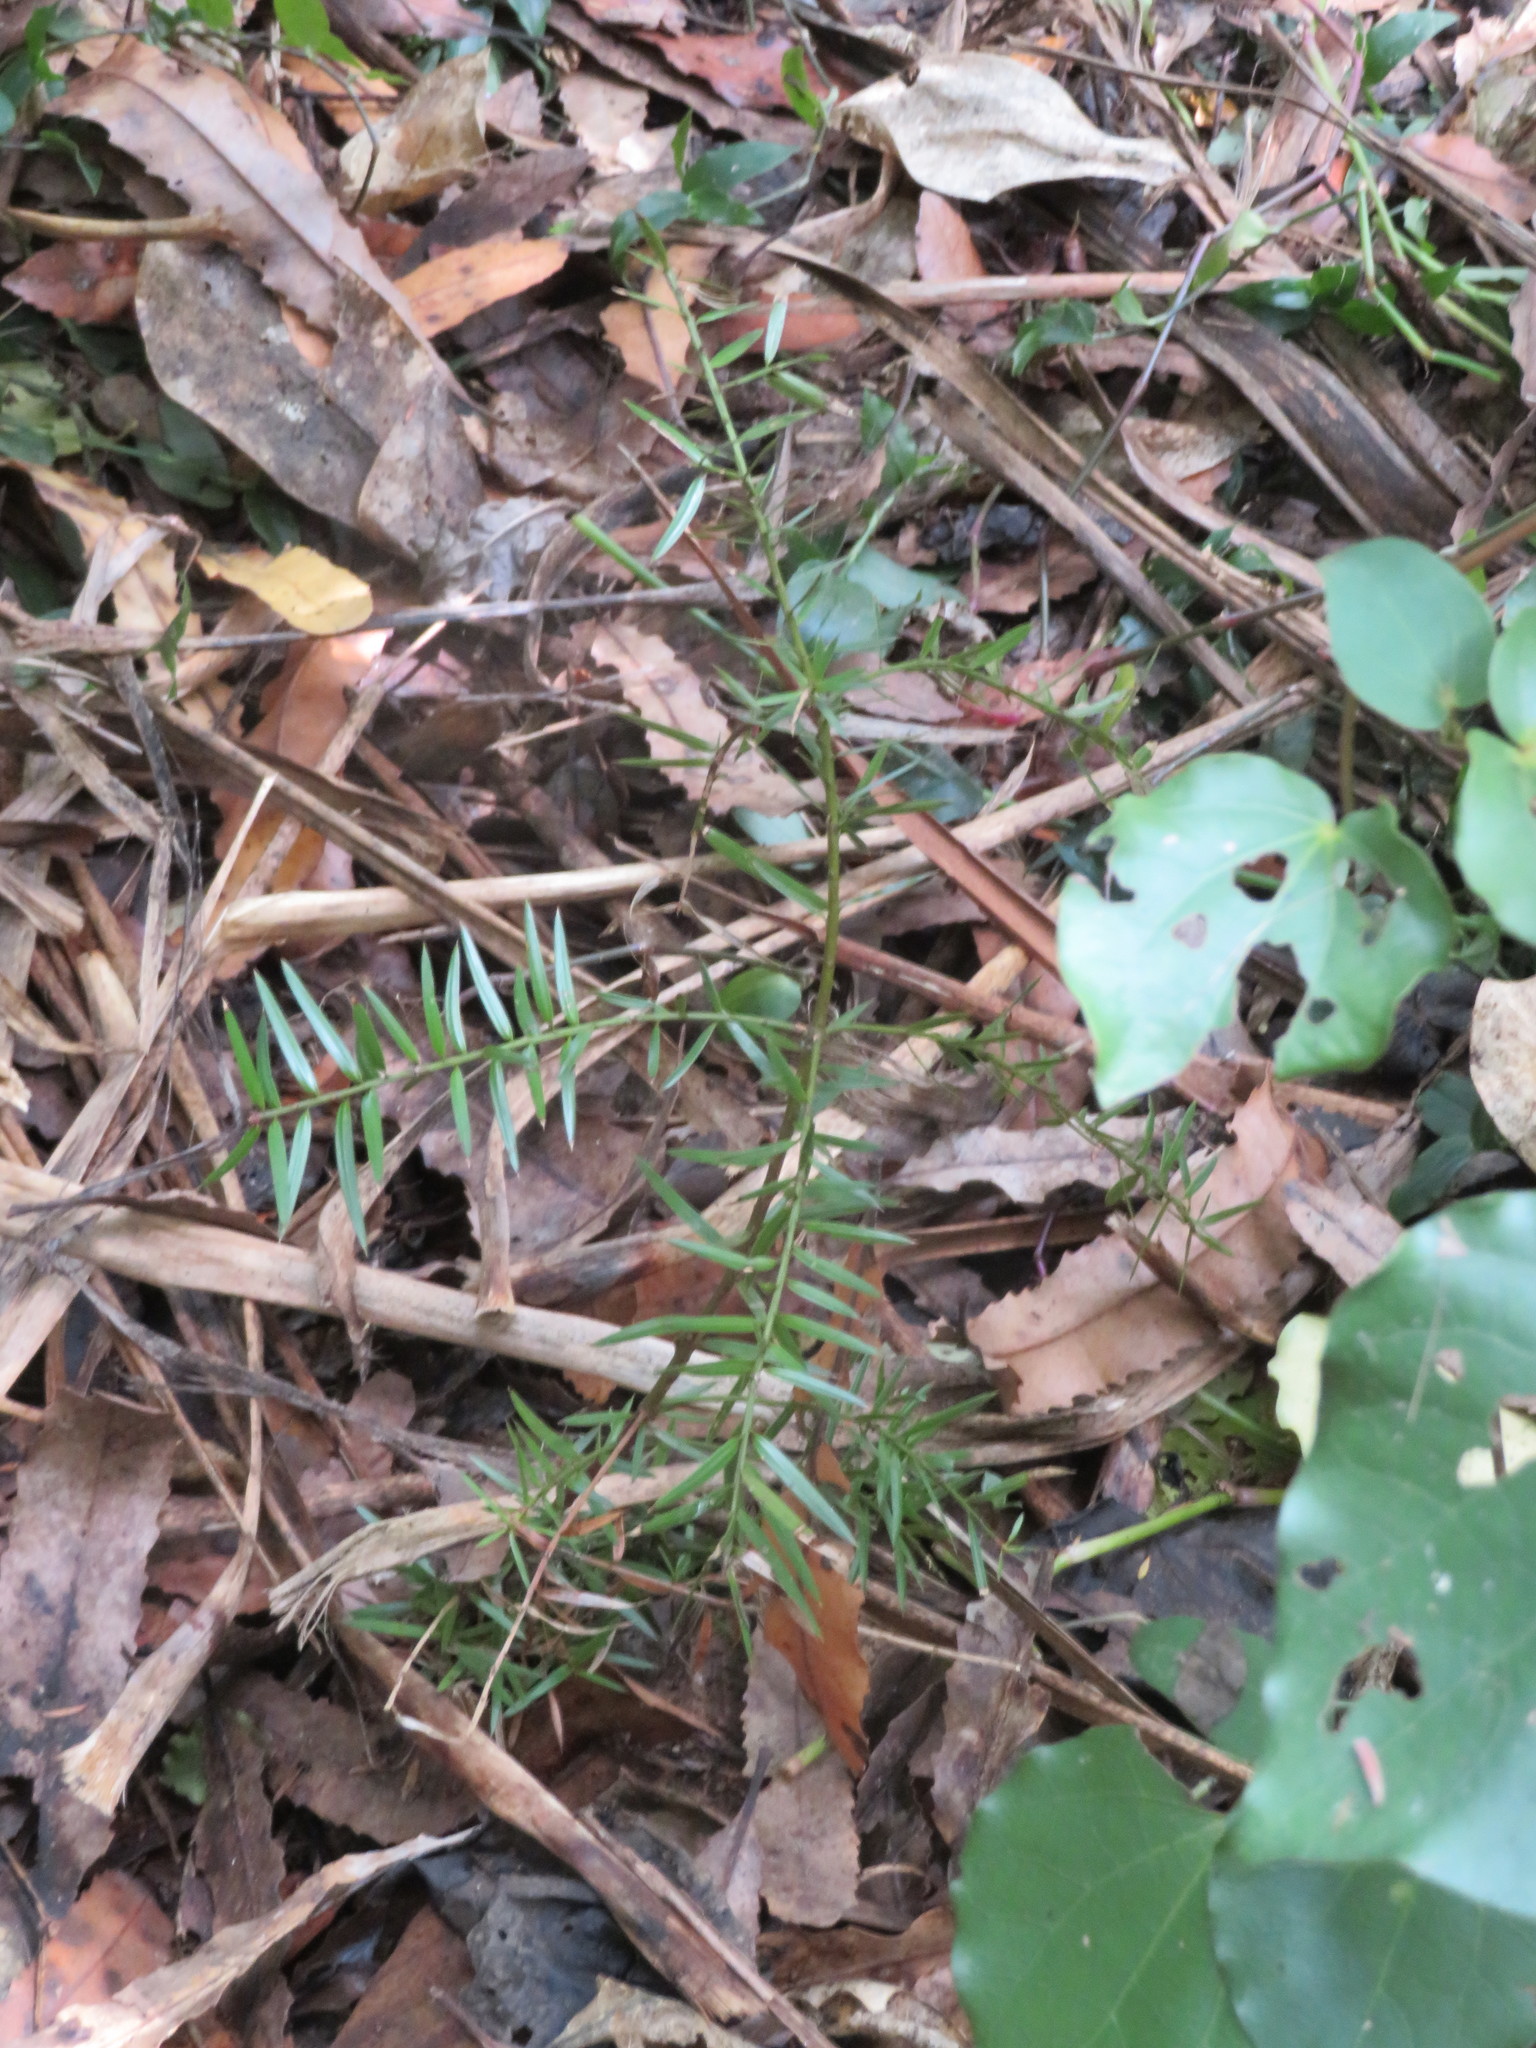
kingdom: Plantae
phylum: Tracheophyta
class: Pinopsida
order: Pinales
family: Podocarpaceae
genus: Podocarpus
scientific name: Podocarpus totara
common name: Totara
